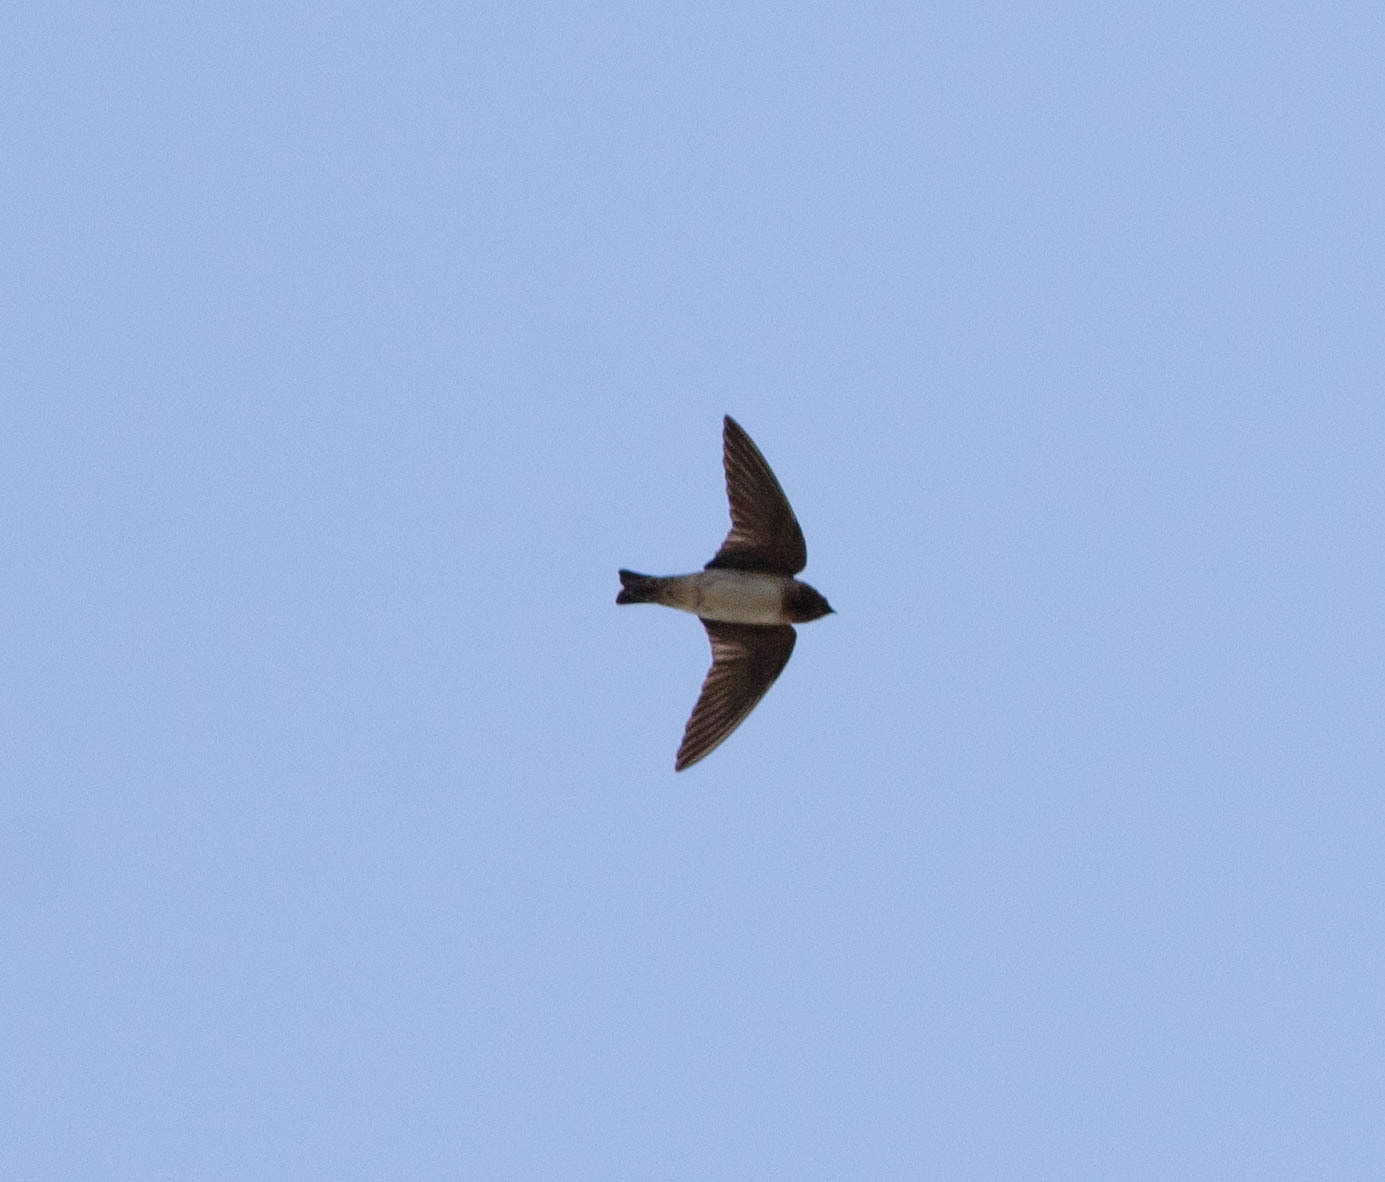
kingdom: Animalia
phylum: Chordata
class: Aves
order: Passeriformes
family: Hirundinidae
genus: Petrochelidon
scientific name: Petrochelidon pyrrhonota
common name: American cliff swallow
